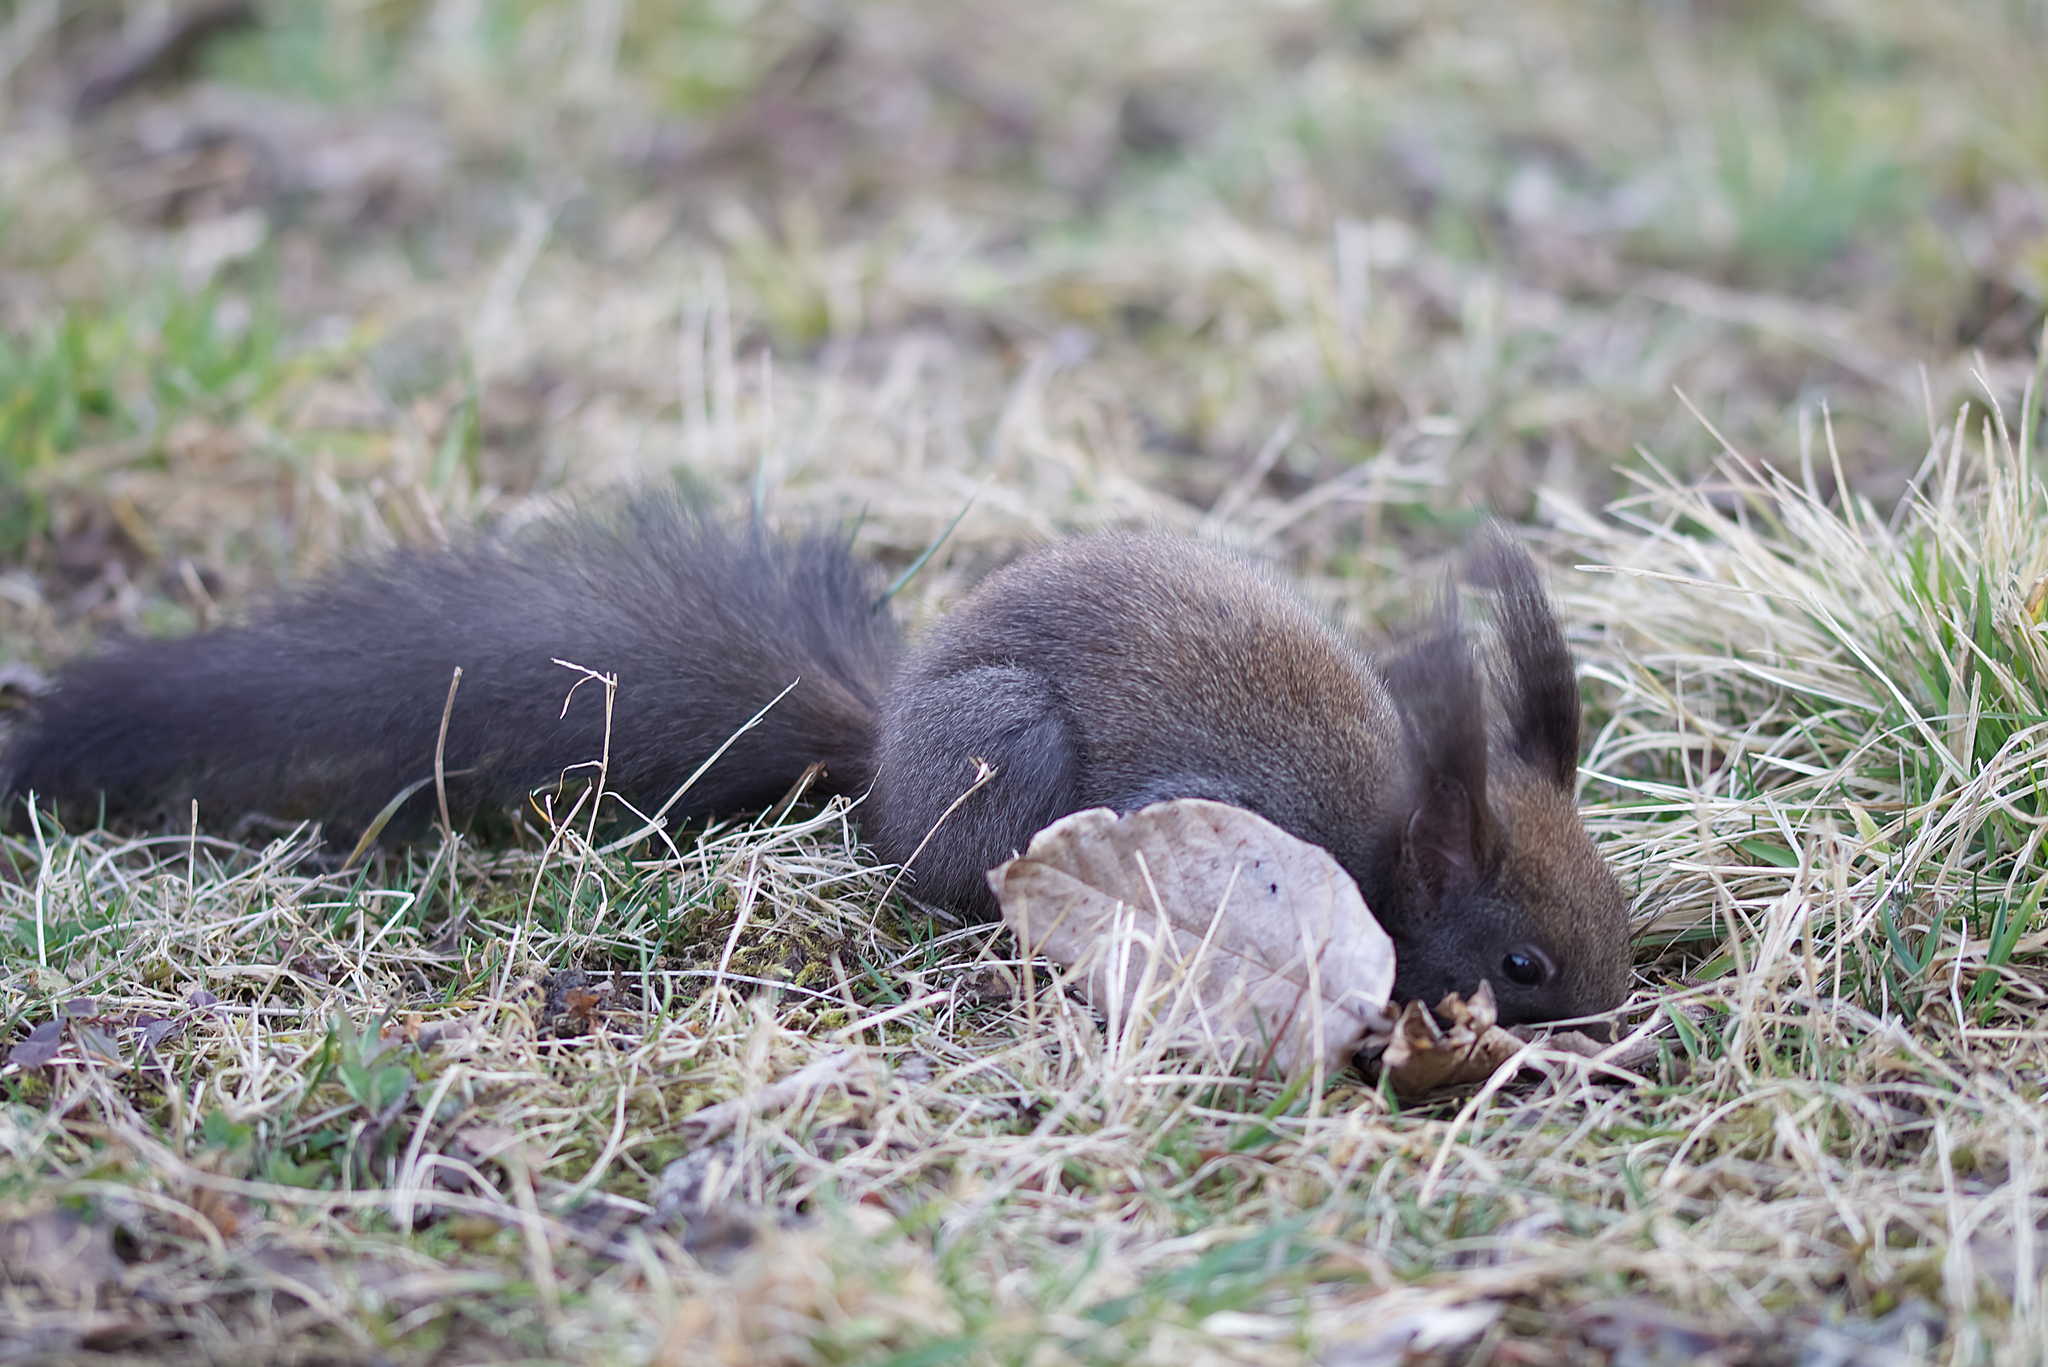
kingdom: Animalia
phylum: Chordata
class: Mammalia
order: Rodentia
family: Sciuridae
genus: Sciurus
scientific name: Sciurus vulgaris
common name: Eurasian red squirrel
